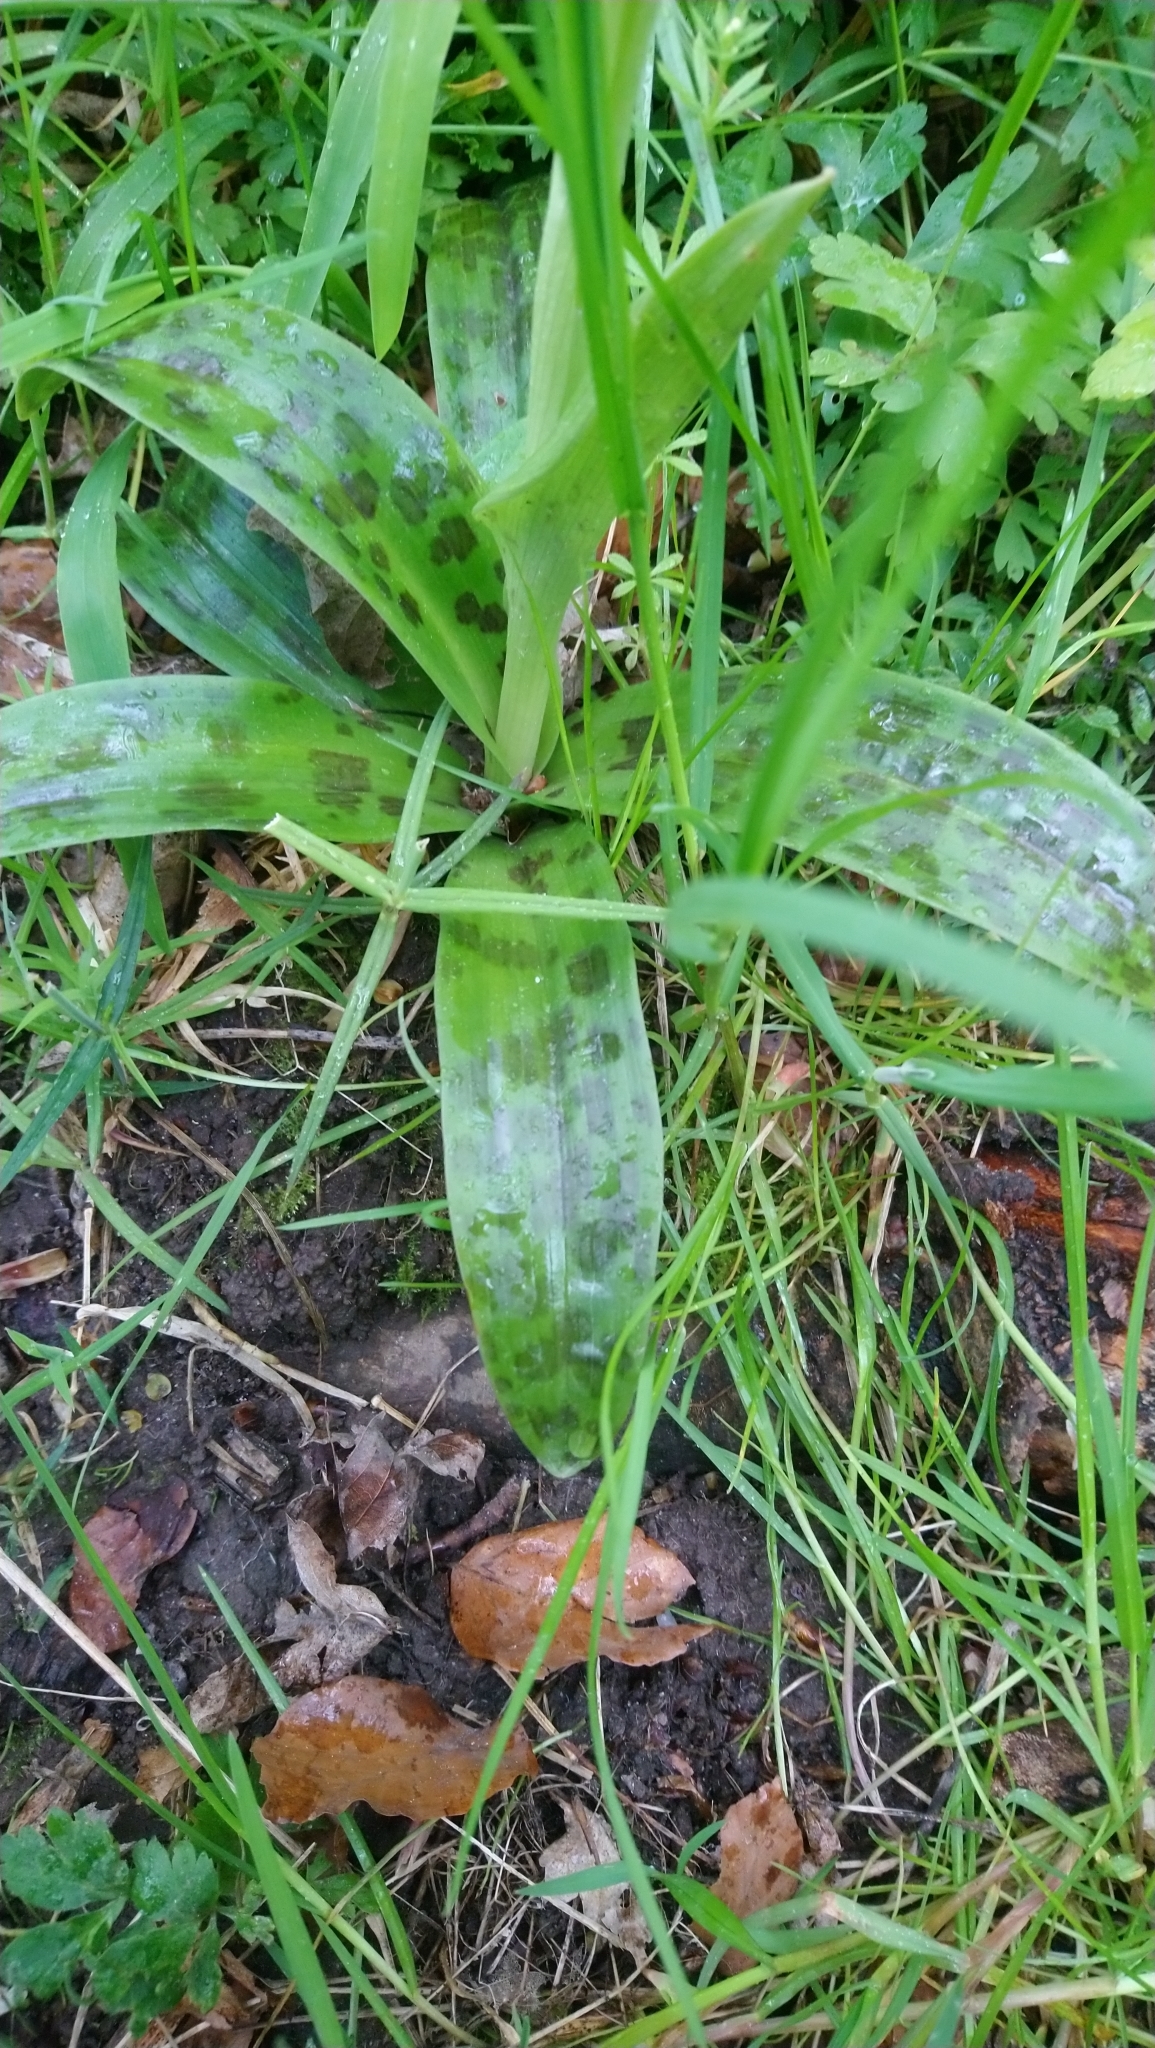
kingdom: Plantae
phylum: Tracheophyta
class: Liliopsida
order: Asparagales
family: Orchidaceae
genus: Orchis
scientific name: Orchis mascula
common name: Early-purple orchid
